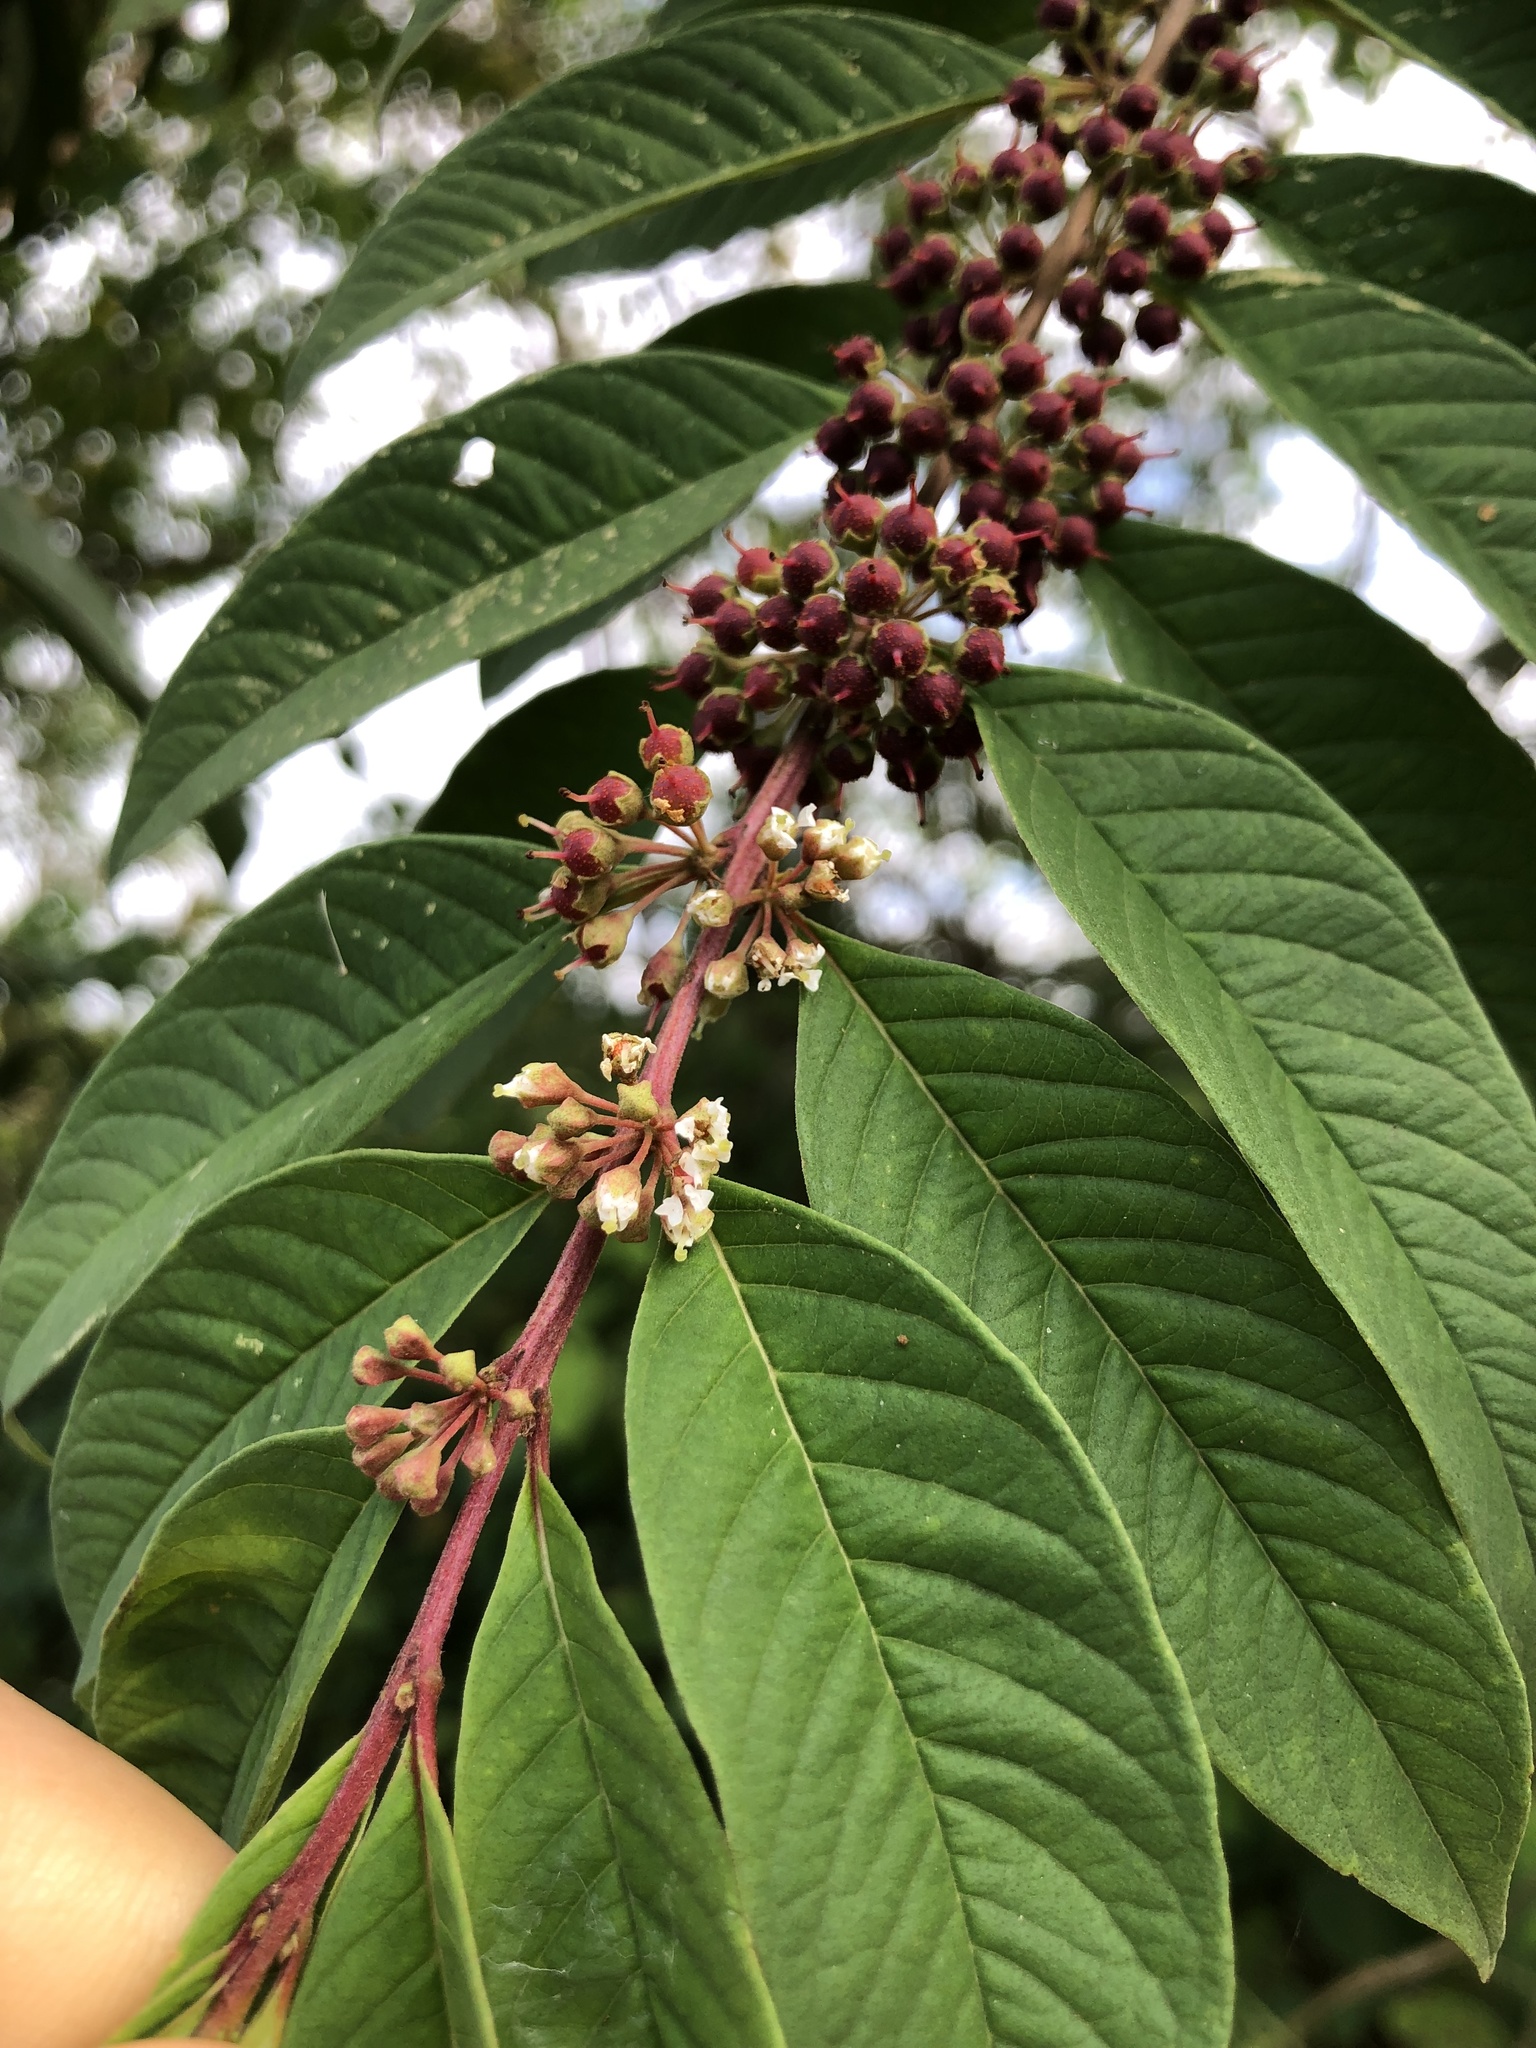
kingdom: Plantae
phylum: Tracheophyta
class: Magnoliopsida
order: Myrtales
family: Lythraceae
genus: Adenaria
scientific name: Adenaria floribunda
